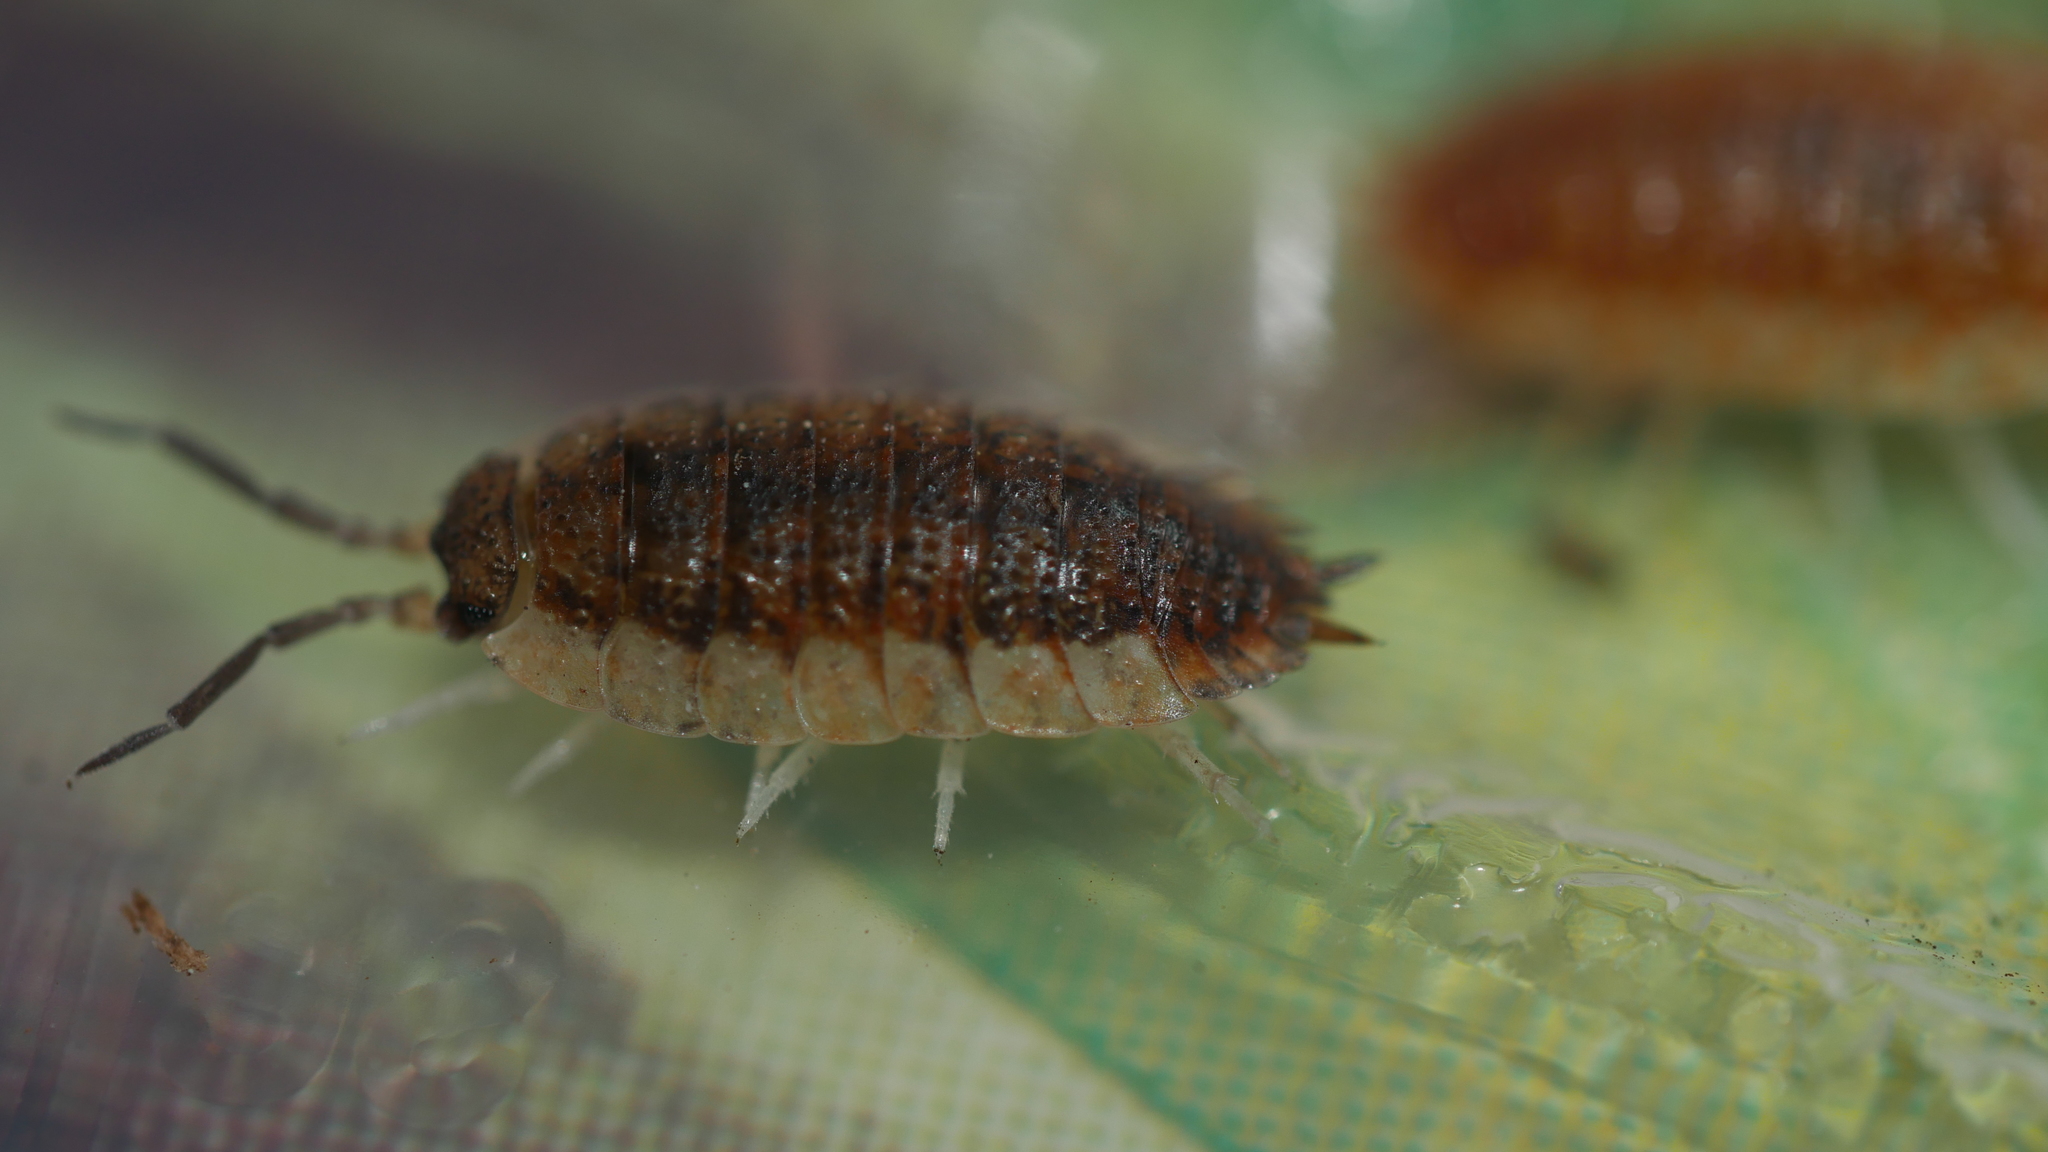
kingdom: Animalia
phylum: Arthropoda
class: Malacostraca
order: Isopoda
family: Porcellionidae
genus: Porcellio
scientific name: Porcellio scaber
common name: Common rough woodlouse
